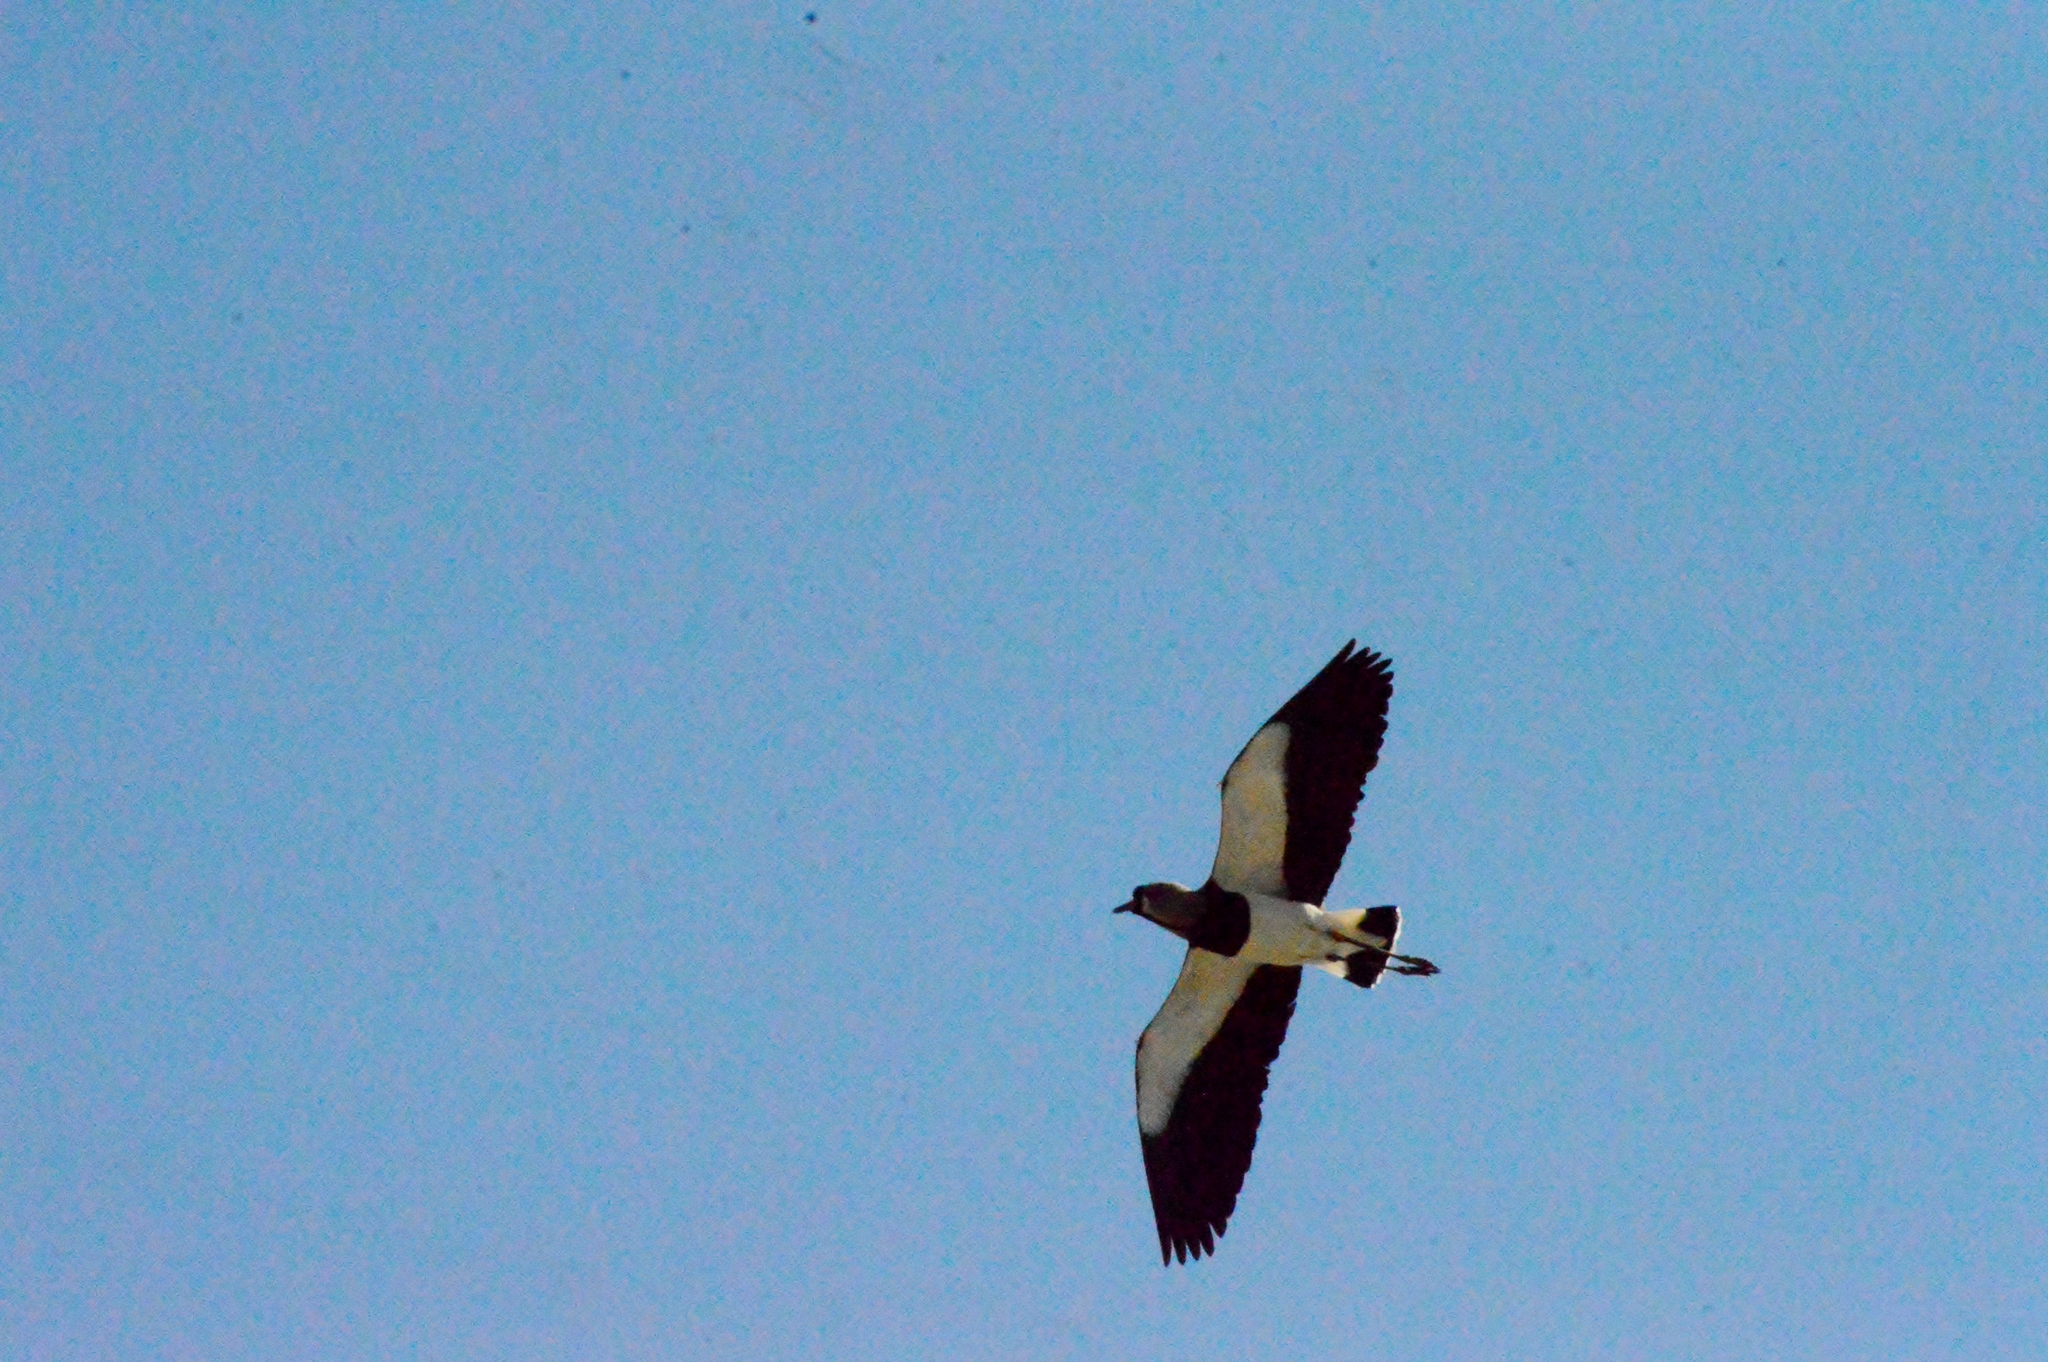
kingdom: Animalia
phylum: Chordata
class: Aves
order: Charadriiformes
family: Charadriidae
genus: Vanellus
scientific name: Vanellus chilensis
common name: Southern lapwing
